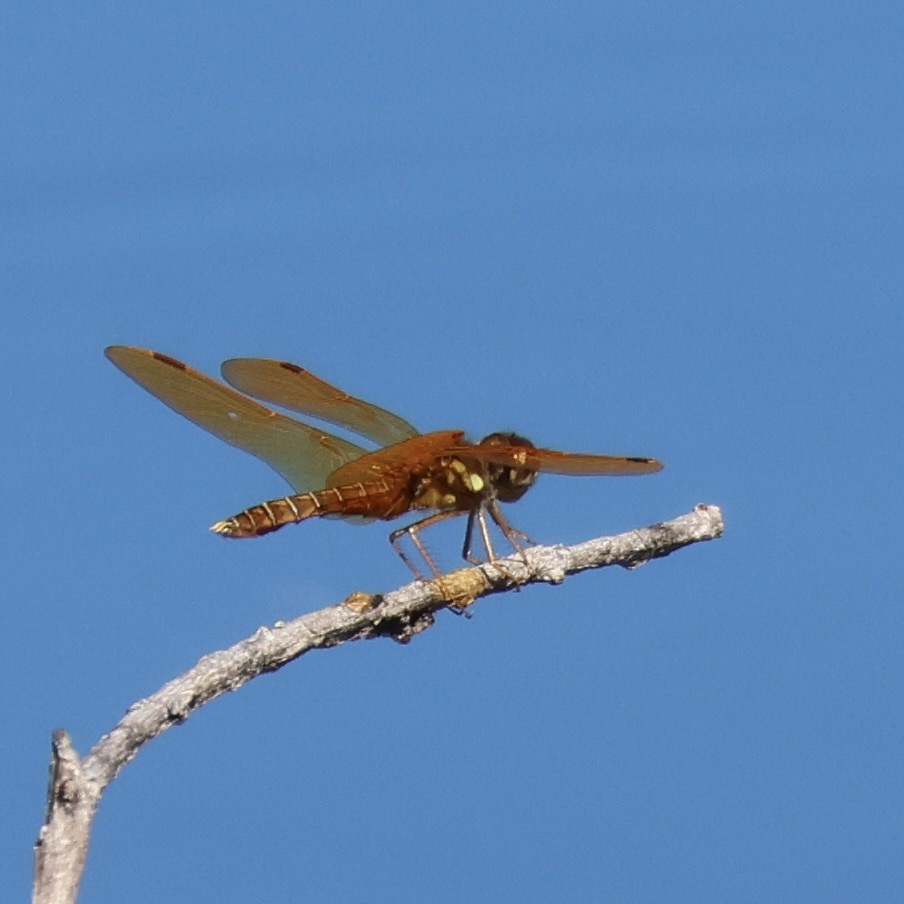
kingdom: Animalia
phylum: Arthropoda
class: Insecta
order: Odonata
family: Libellulidae
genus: Perithemis
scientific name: Perithemis tenera
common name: Eastern amberwing
